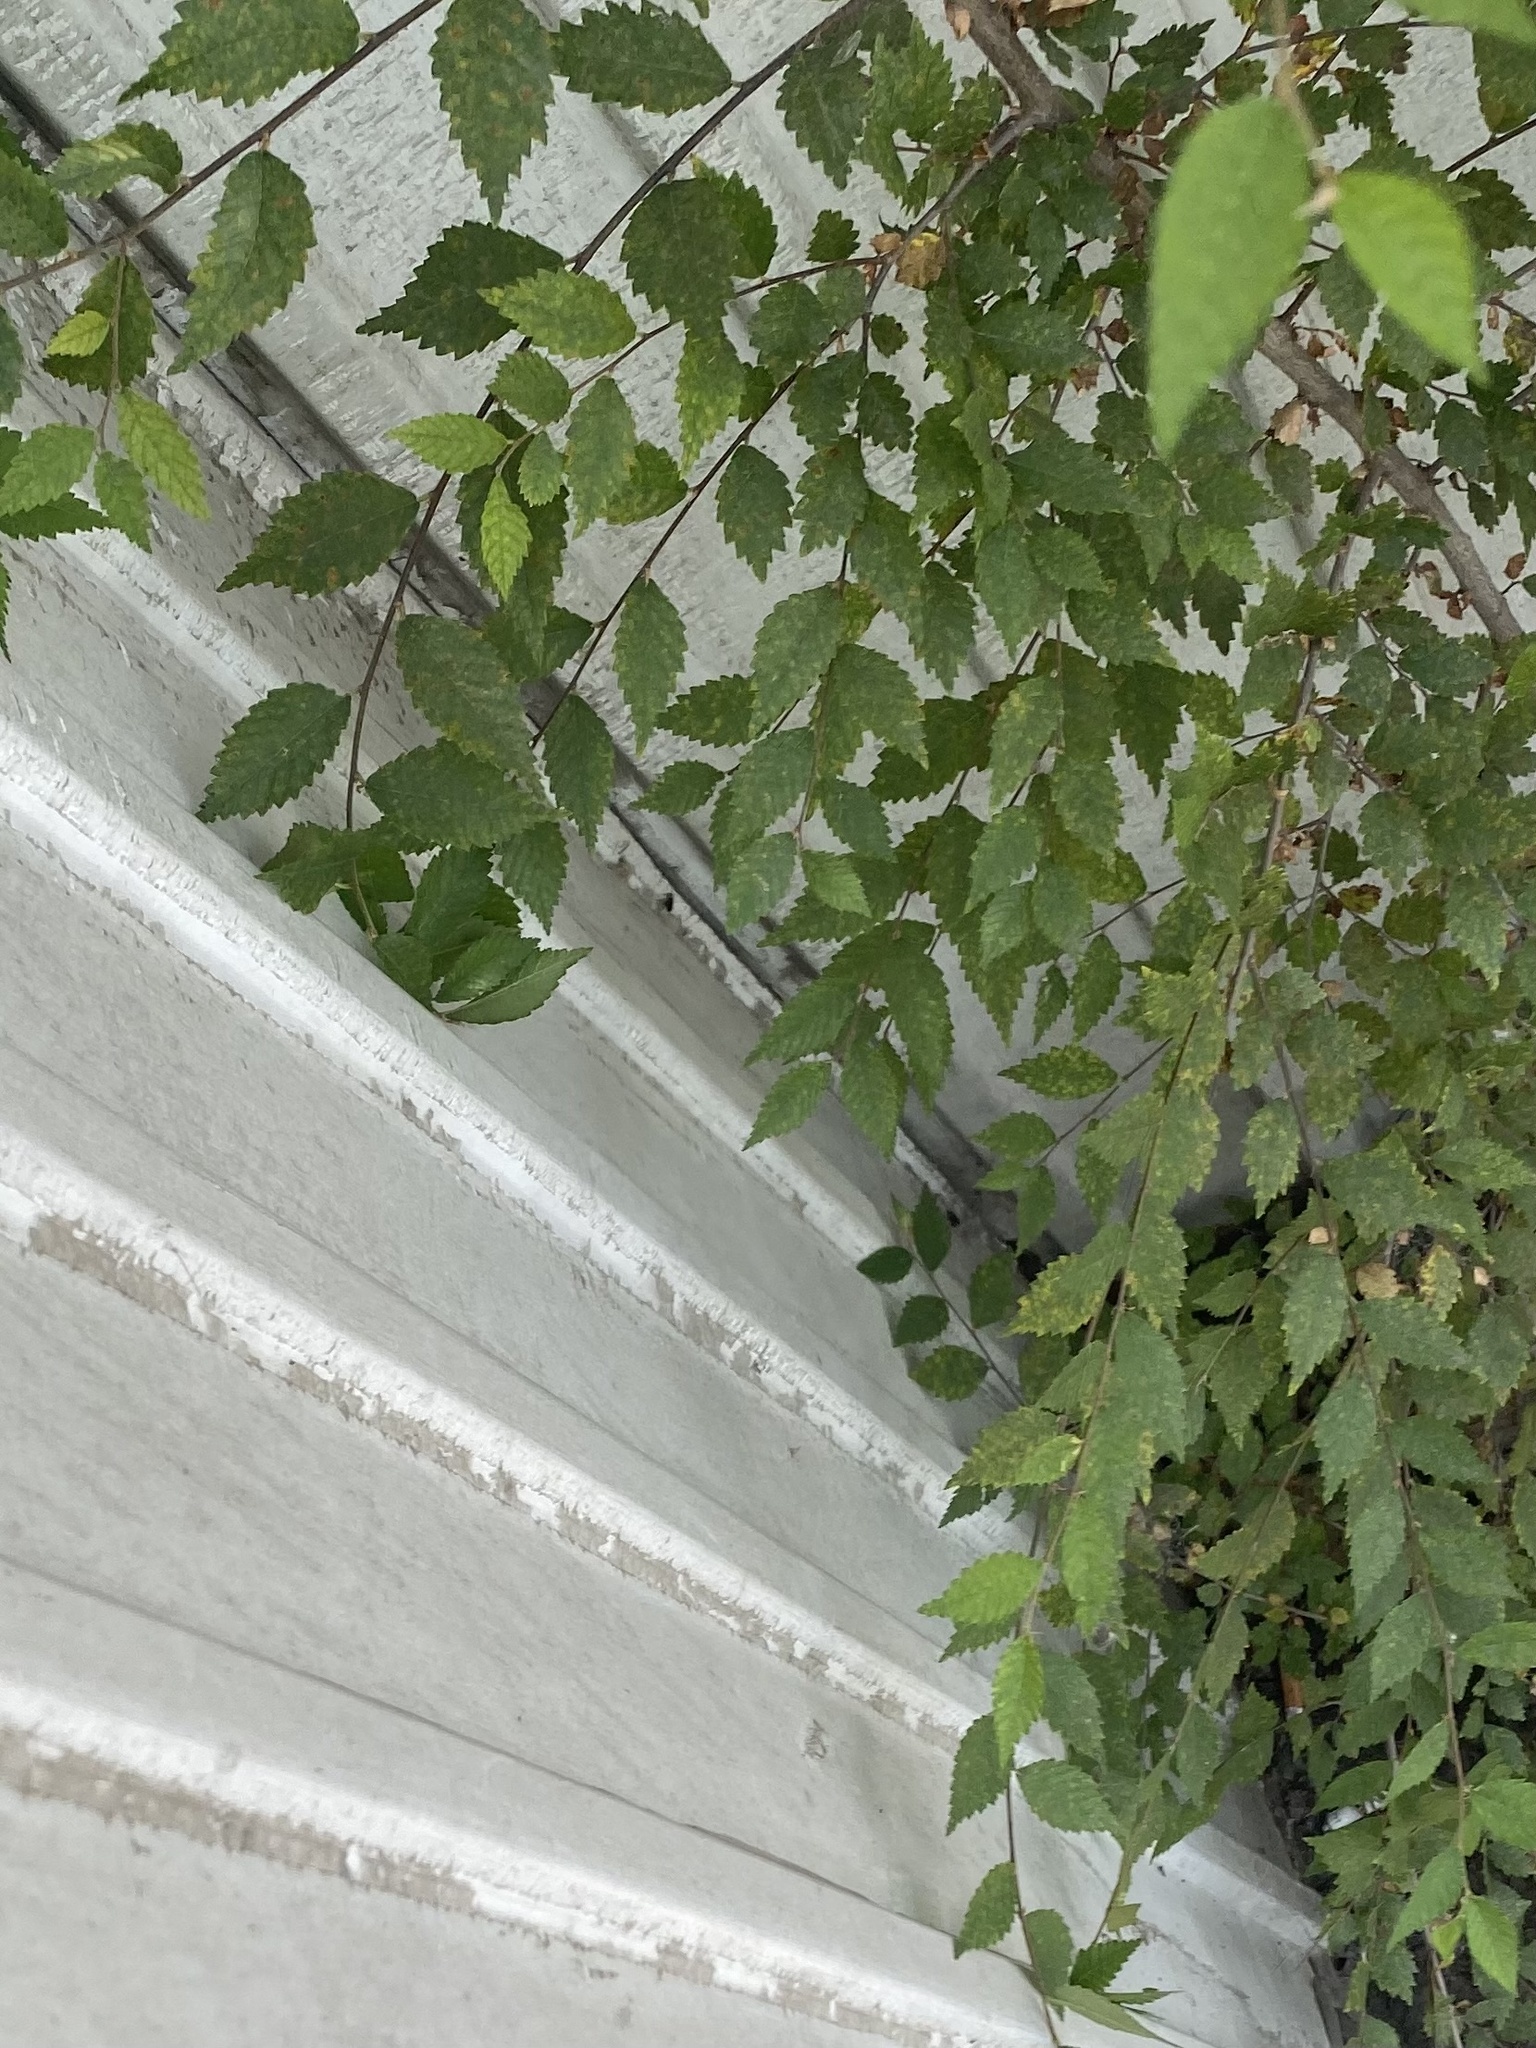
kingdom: Plantae
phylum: Tracheophyta
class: Magnoliopsida
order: Rosales
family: Ulmaceae
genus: Ulmus
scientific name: Ulmus pumila
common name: Siberian elm
